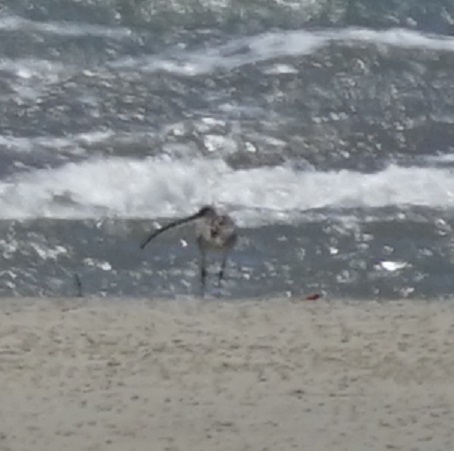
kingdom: Animalia
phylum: Chordata
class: Aves
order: Charadriiformes
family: Scolopacidae
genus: Numenius
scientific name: Numenius madagascariensis
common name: Far eastern curlew
